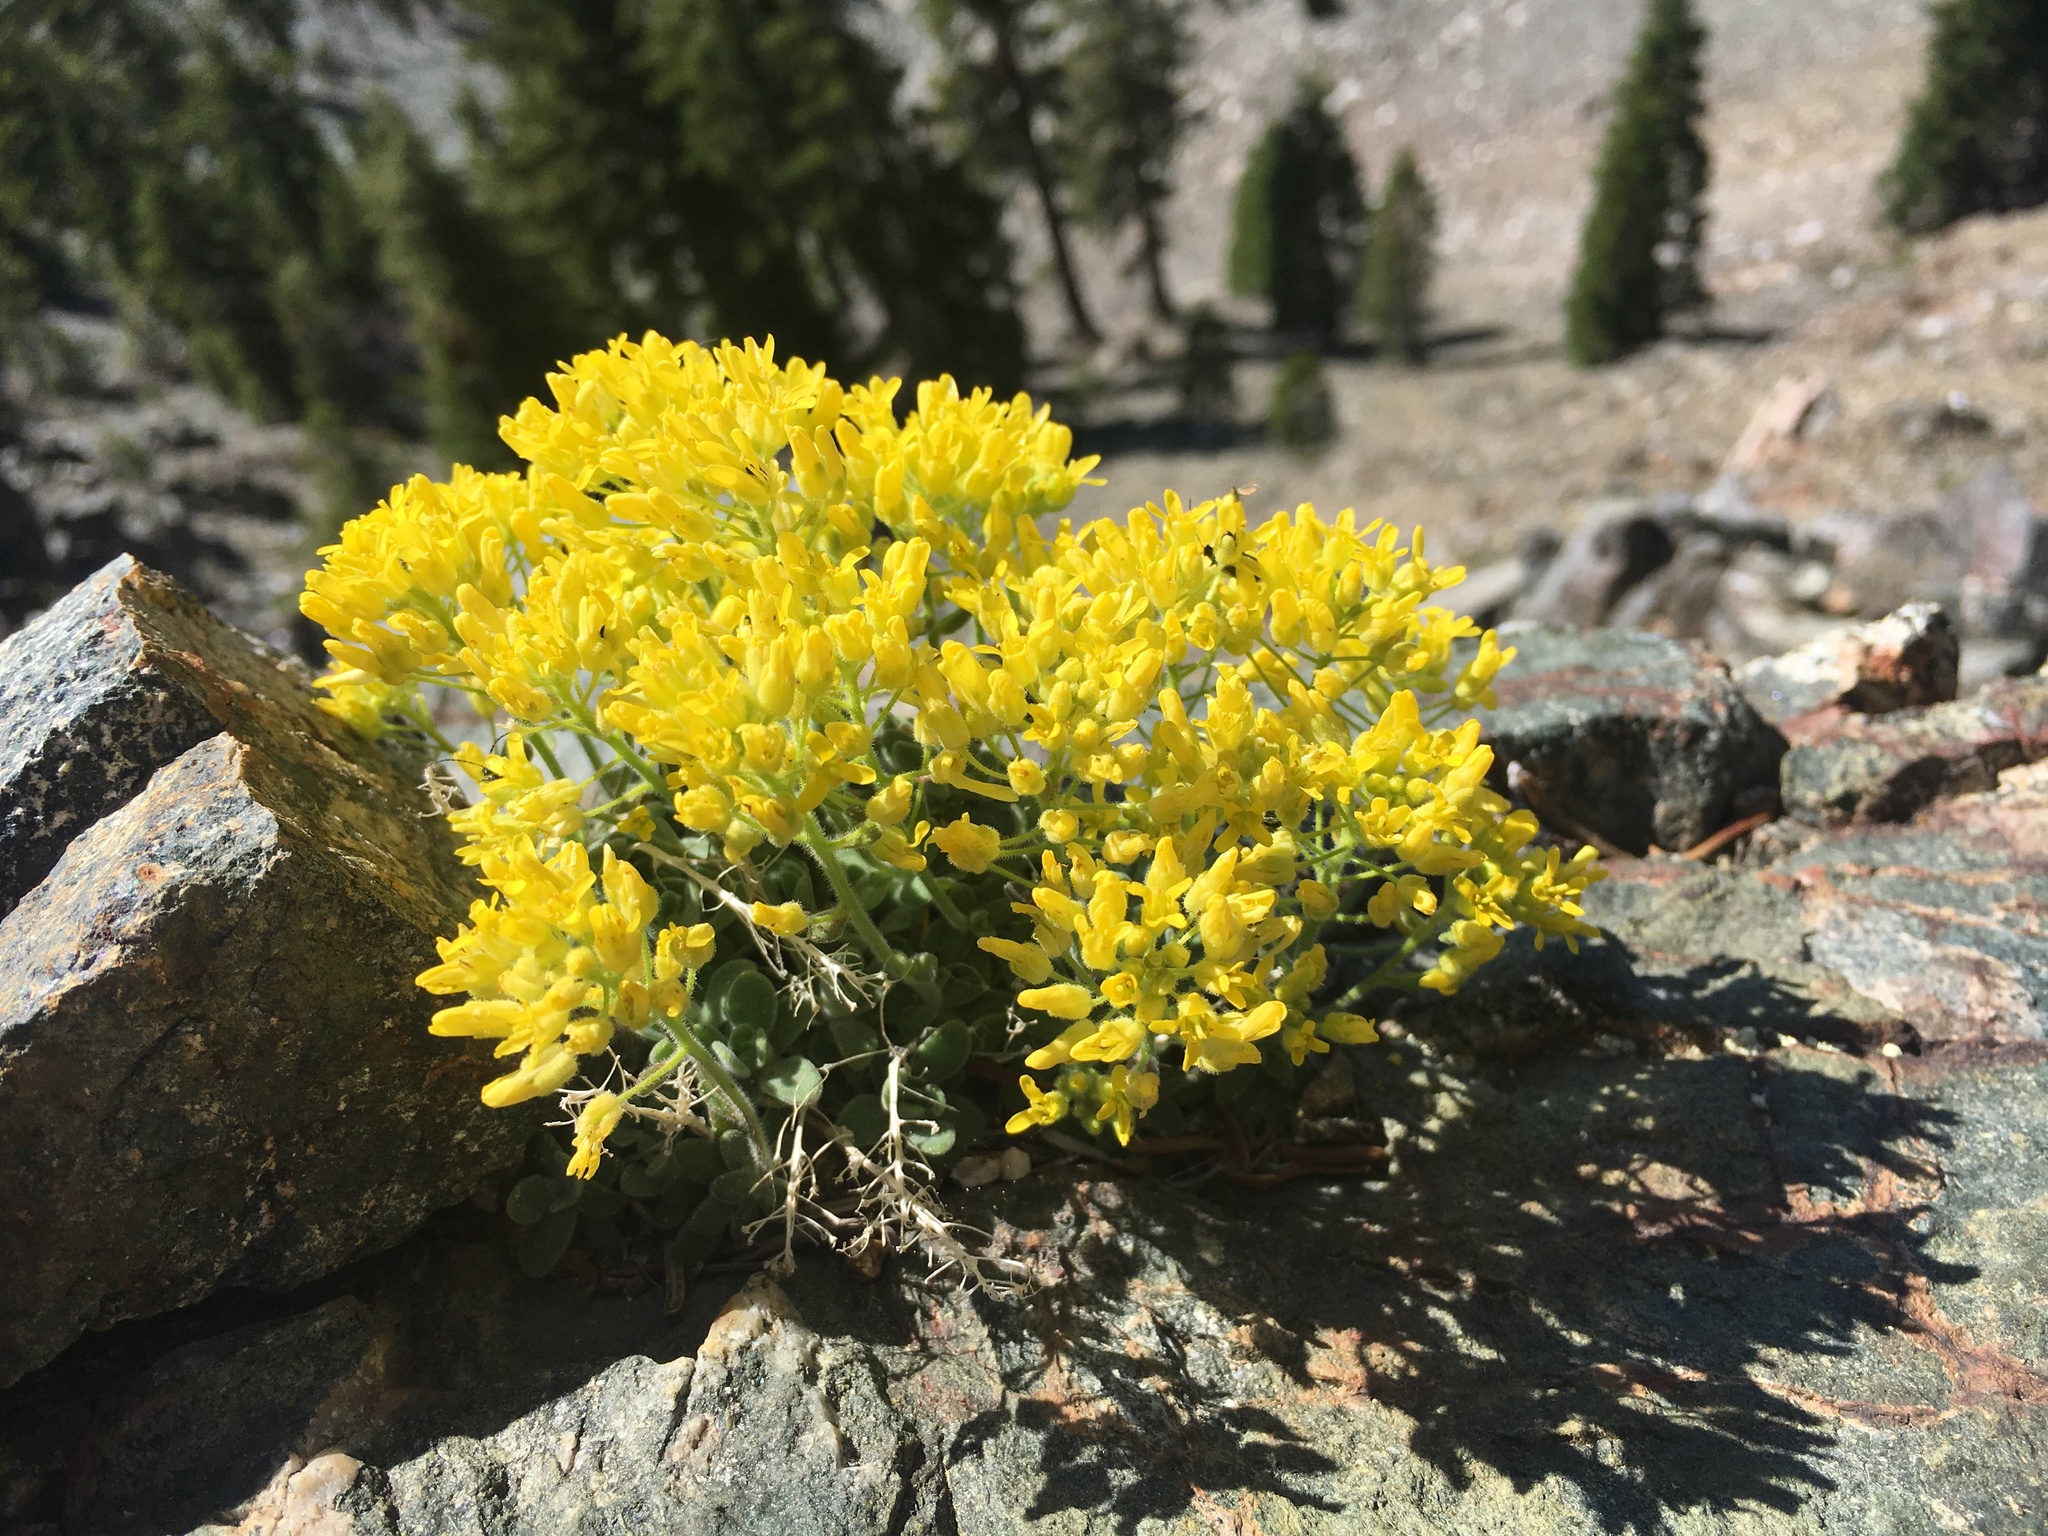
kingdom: Plantae
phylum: Tracheophyta
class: Magnoliopsida
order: Brassicales
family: Brassicaceae
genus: Draba
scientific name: Draba howellii
